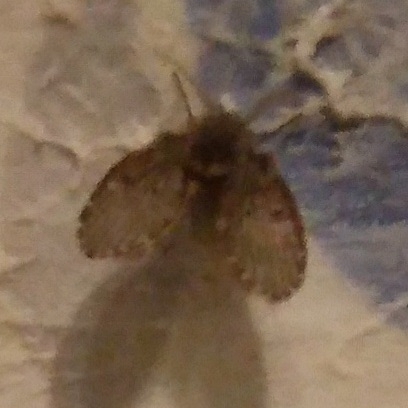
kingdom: Animalia
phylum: Arthropoda
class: Insecta
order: Diptera
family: Psychodidae
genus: Clogmia
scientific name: Clogmia albipunctatus
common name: White-spotted moth fly
